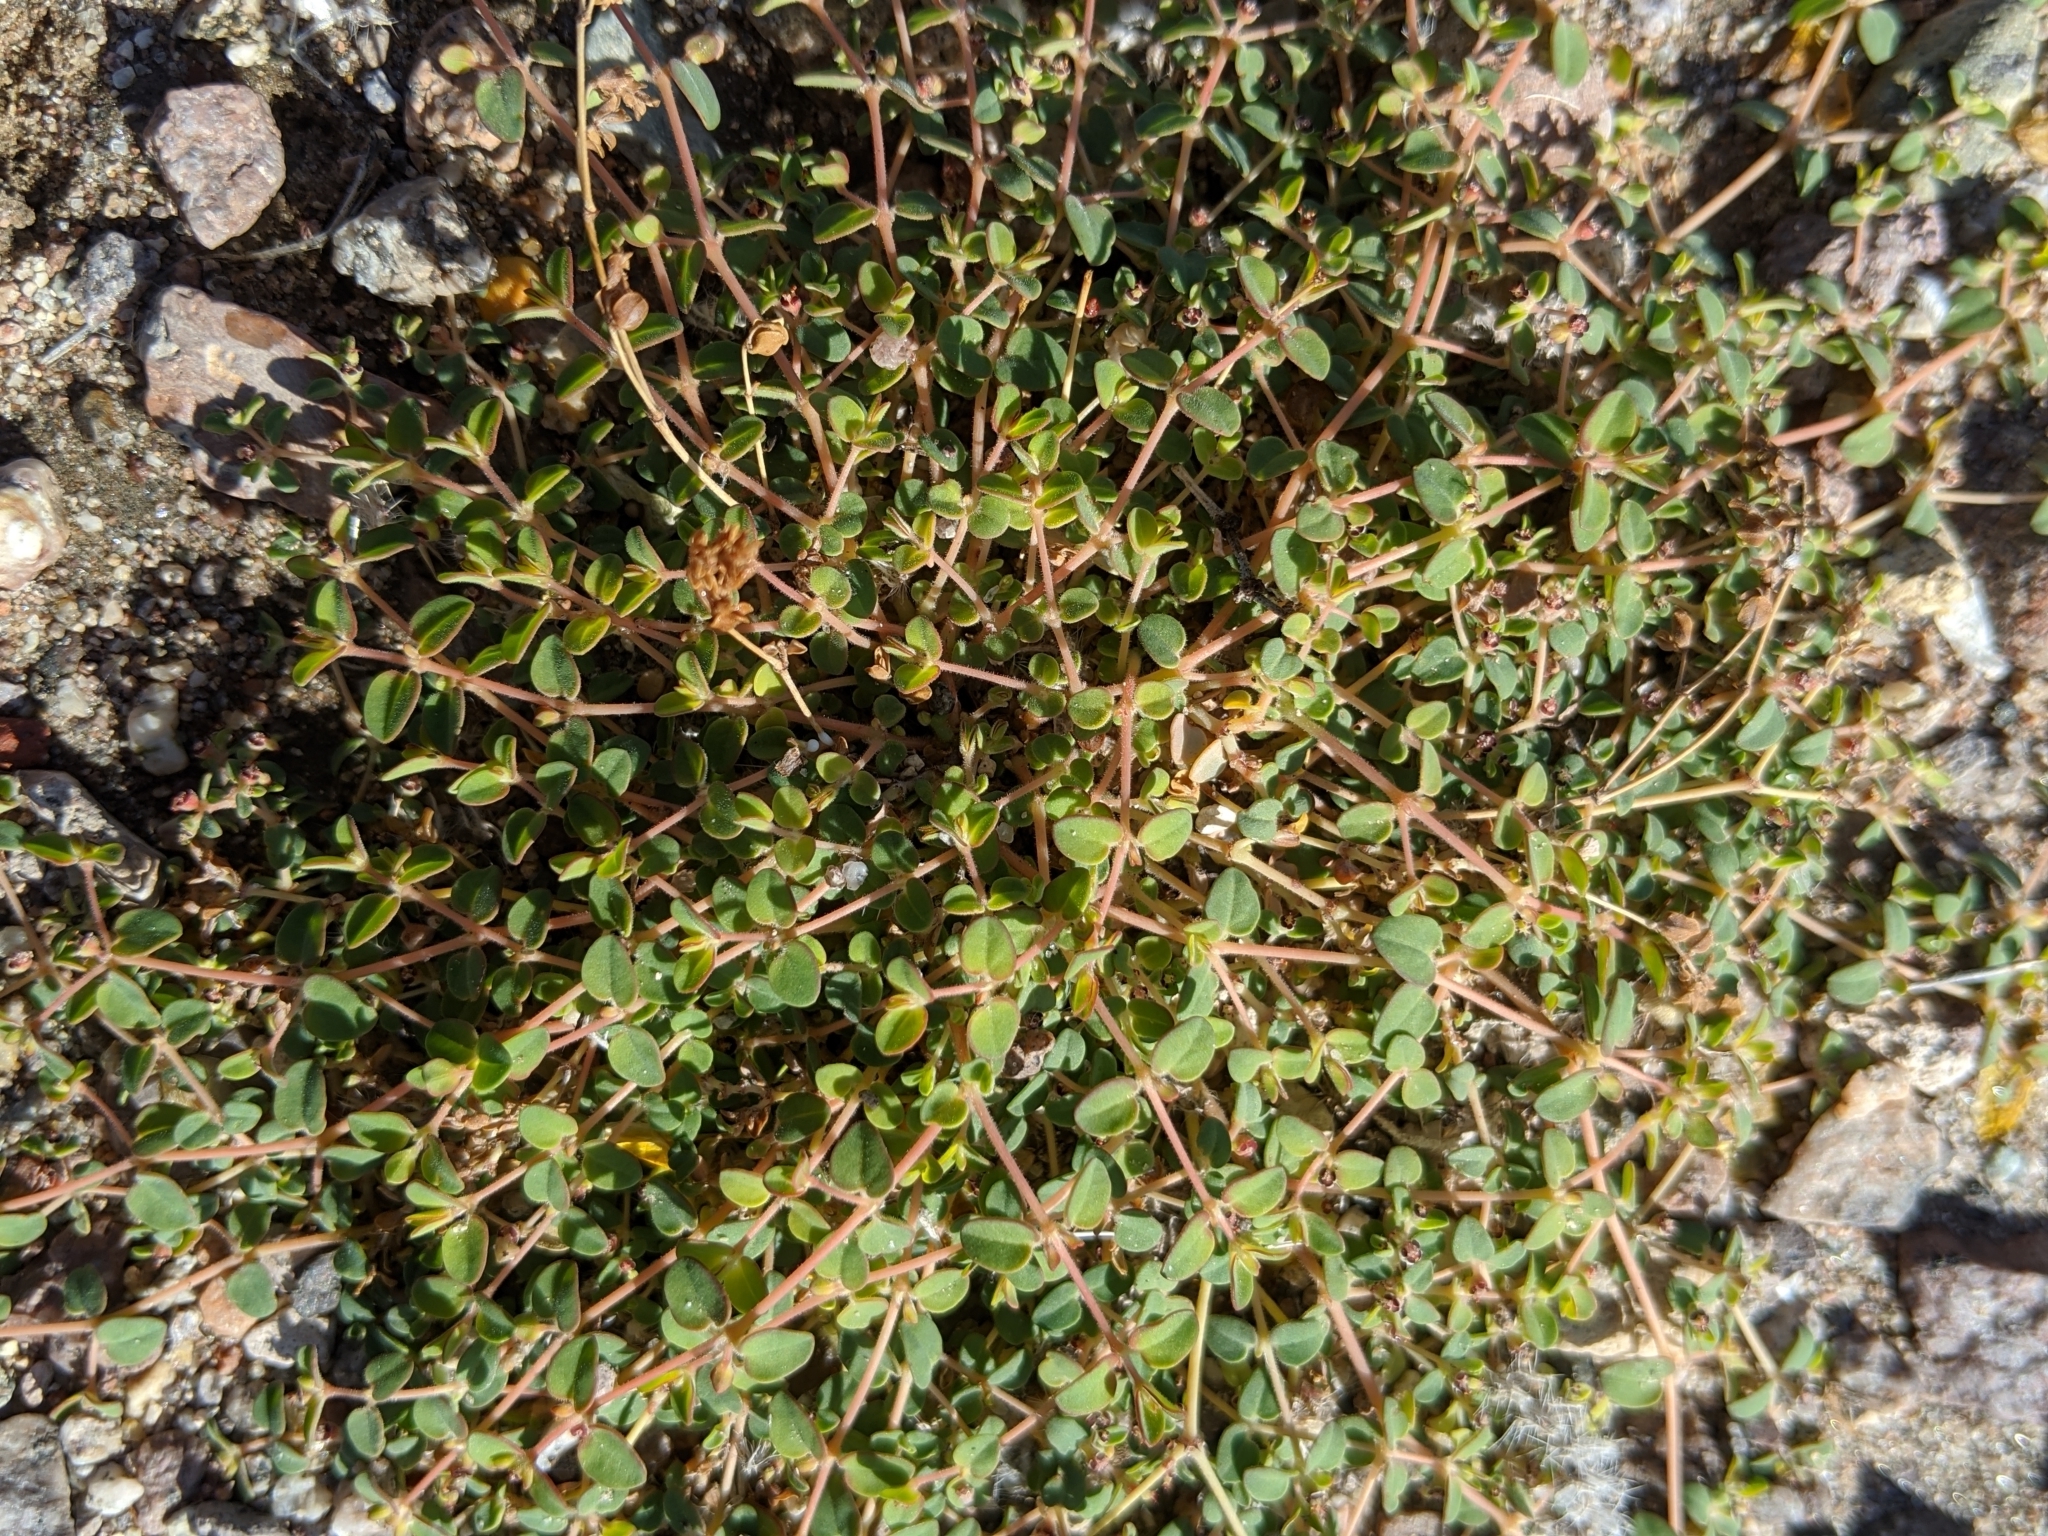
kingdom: Plantae
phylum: Tracheophyta
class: Magnoliopsida
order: Malpighiales
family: Euphorbiaceae
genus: Euphorbia
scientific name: Euphorbia polycarpa
